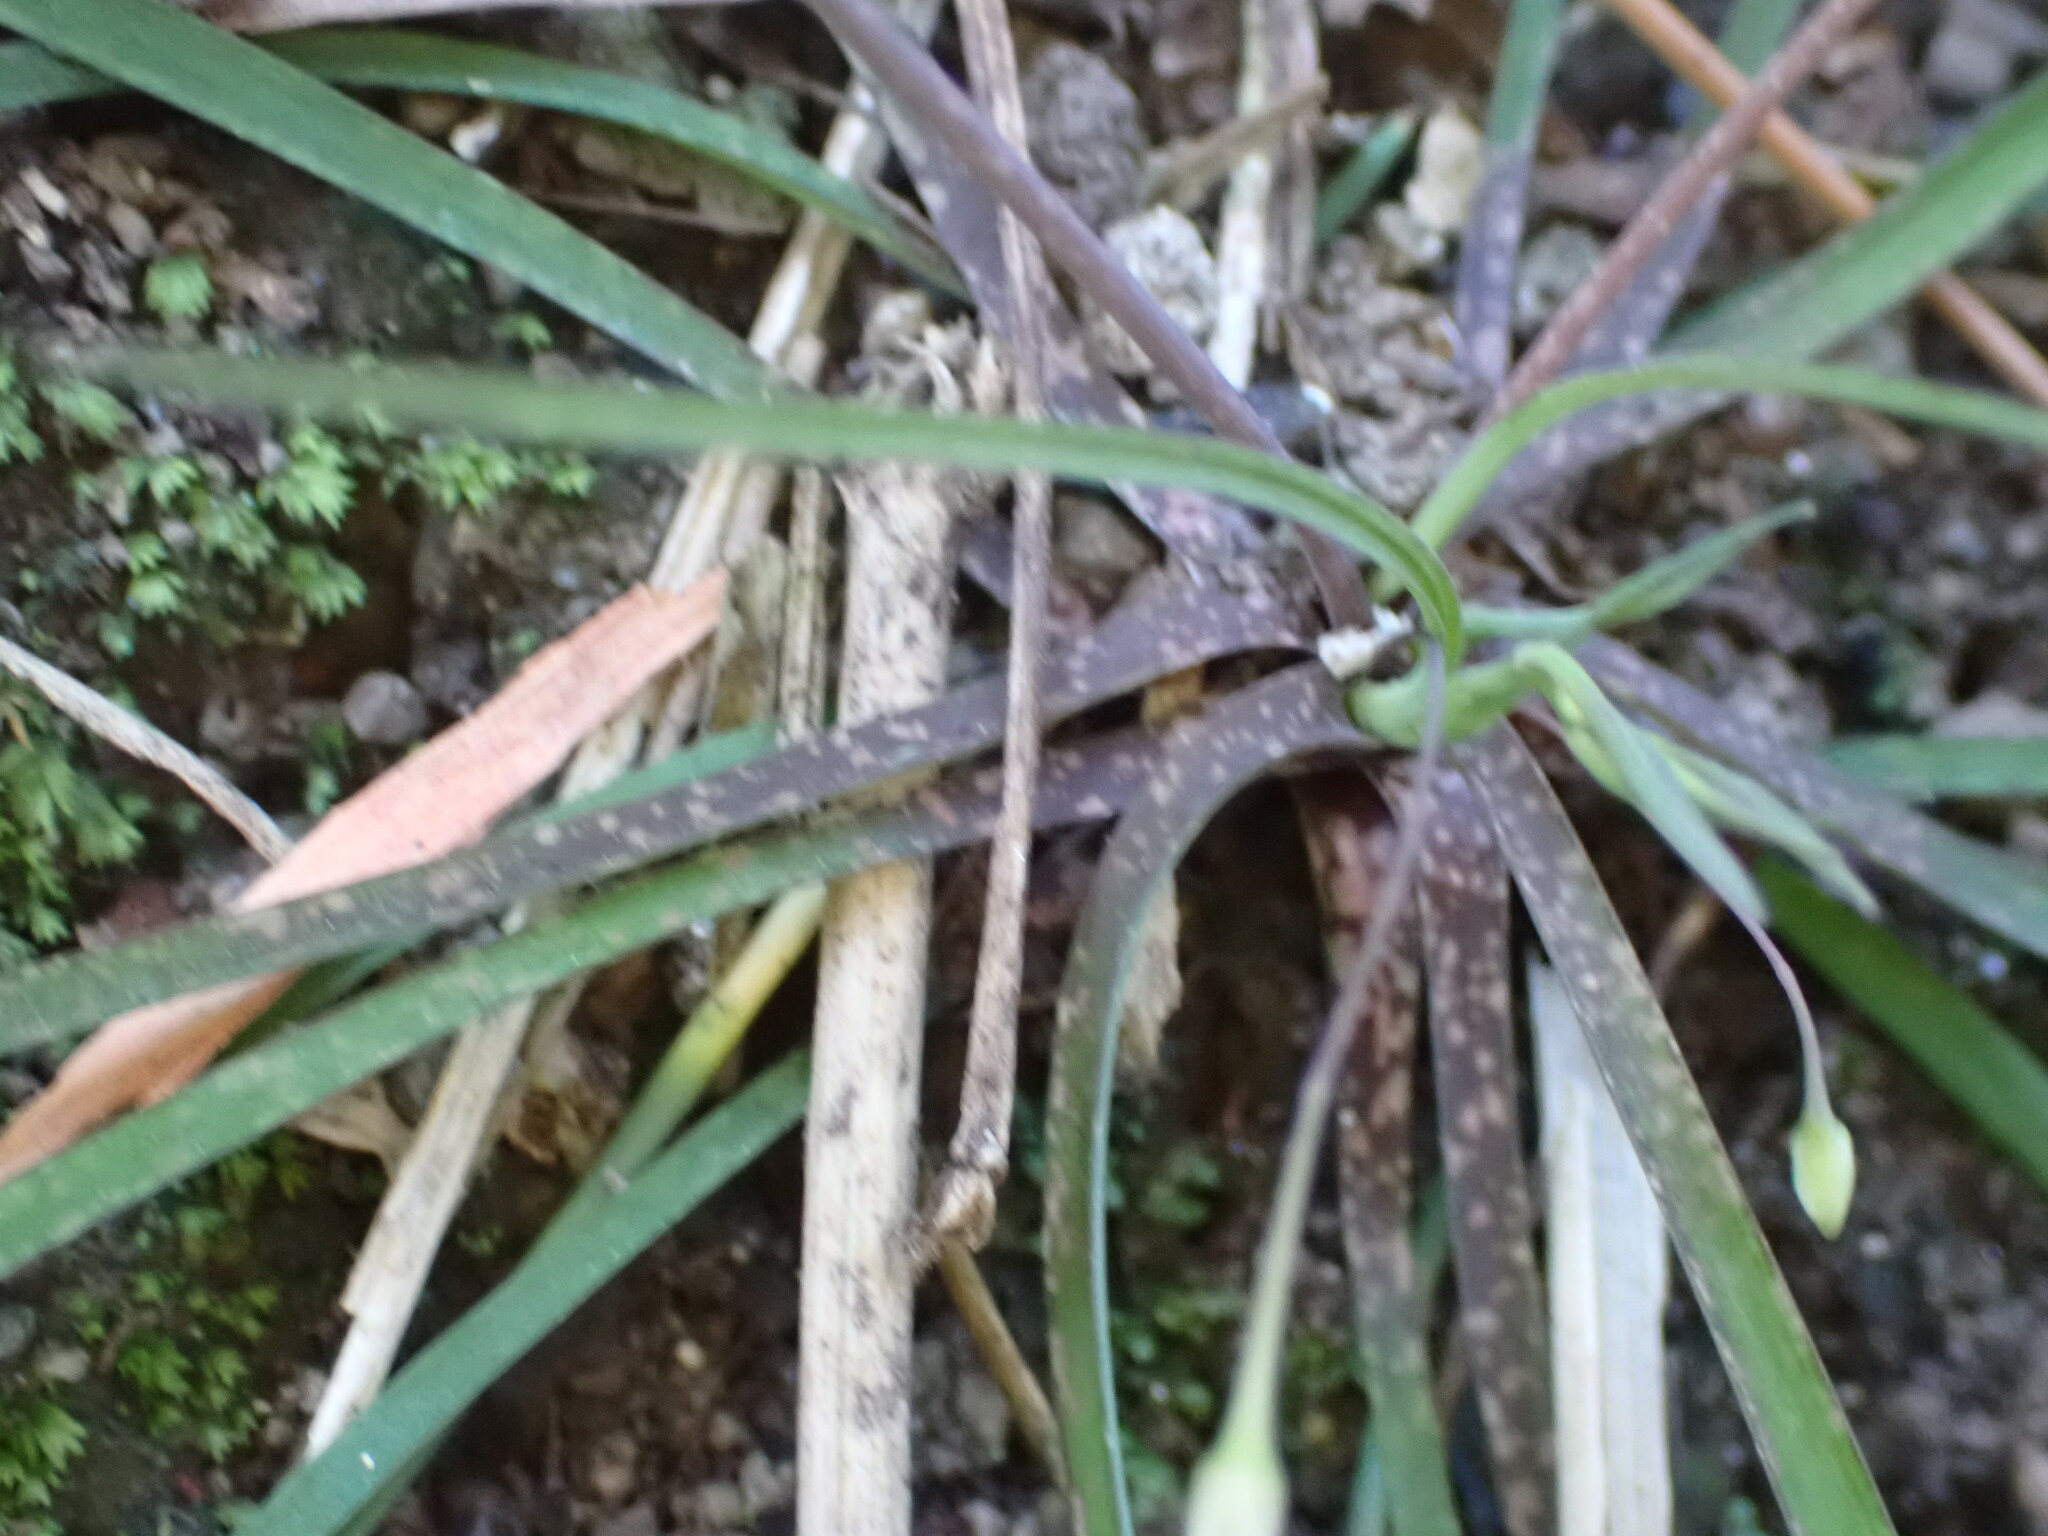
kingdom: Plantae
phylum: Tracheophyta
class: Liliopsida
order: Asparagales
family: Asparagaceae
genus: Arthropodium
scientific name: Arthropodium candidum
